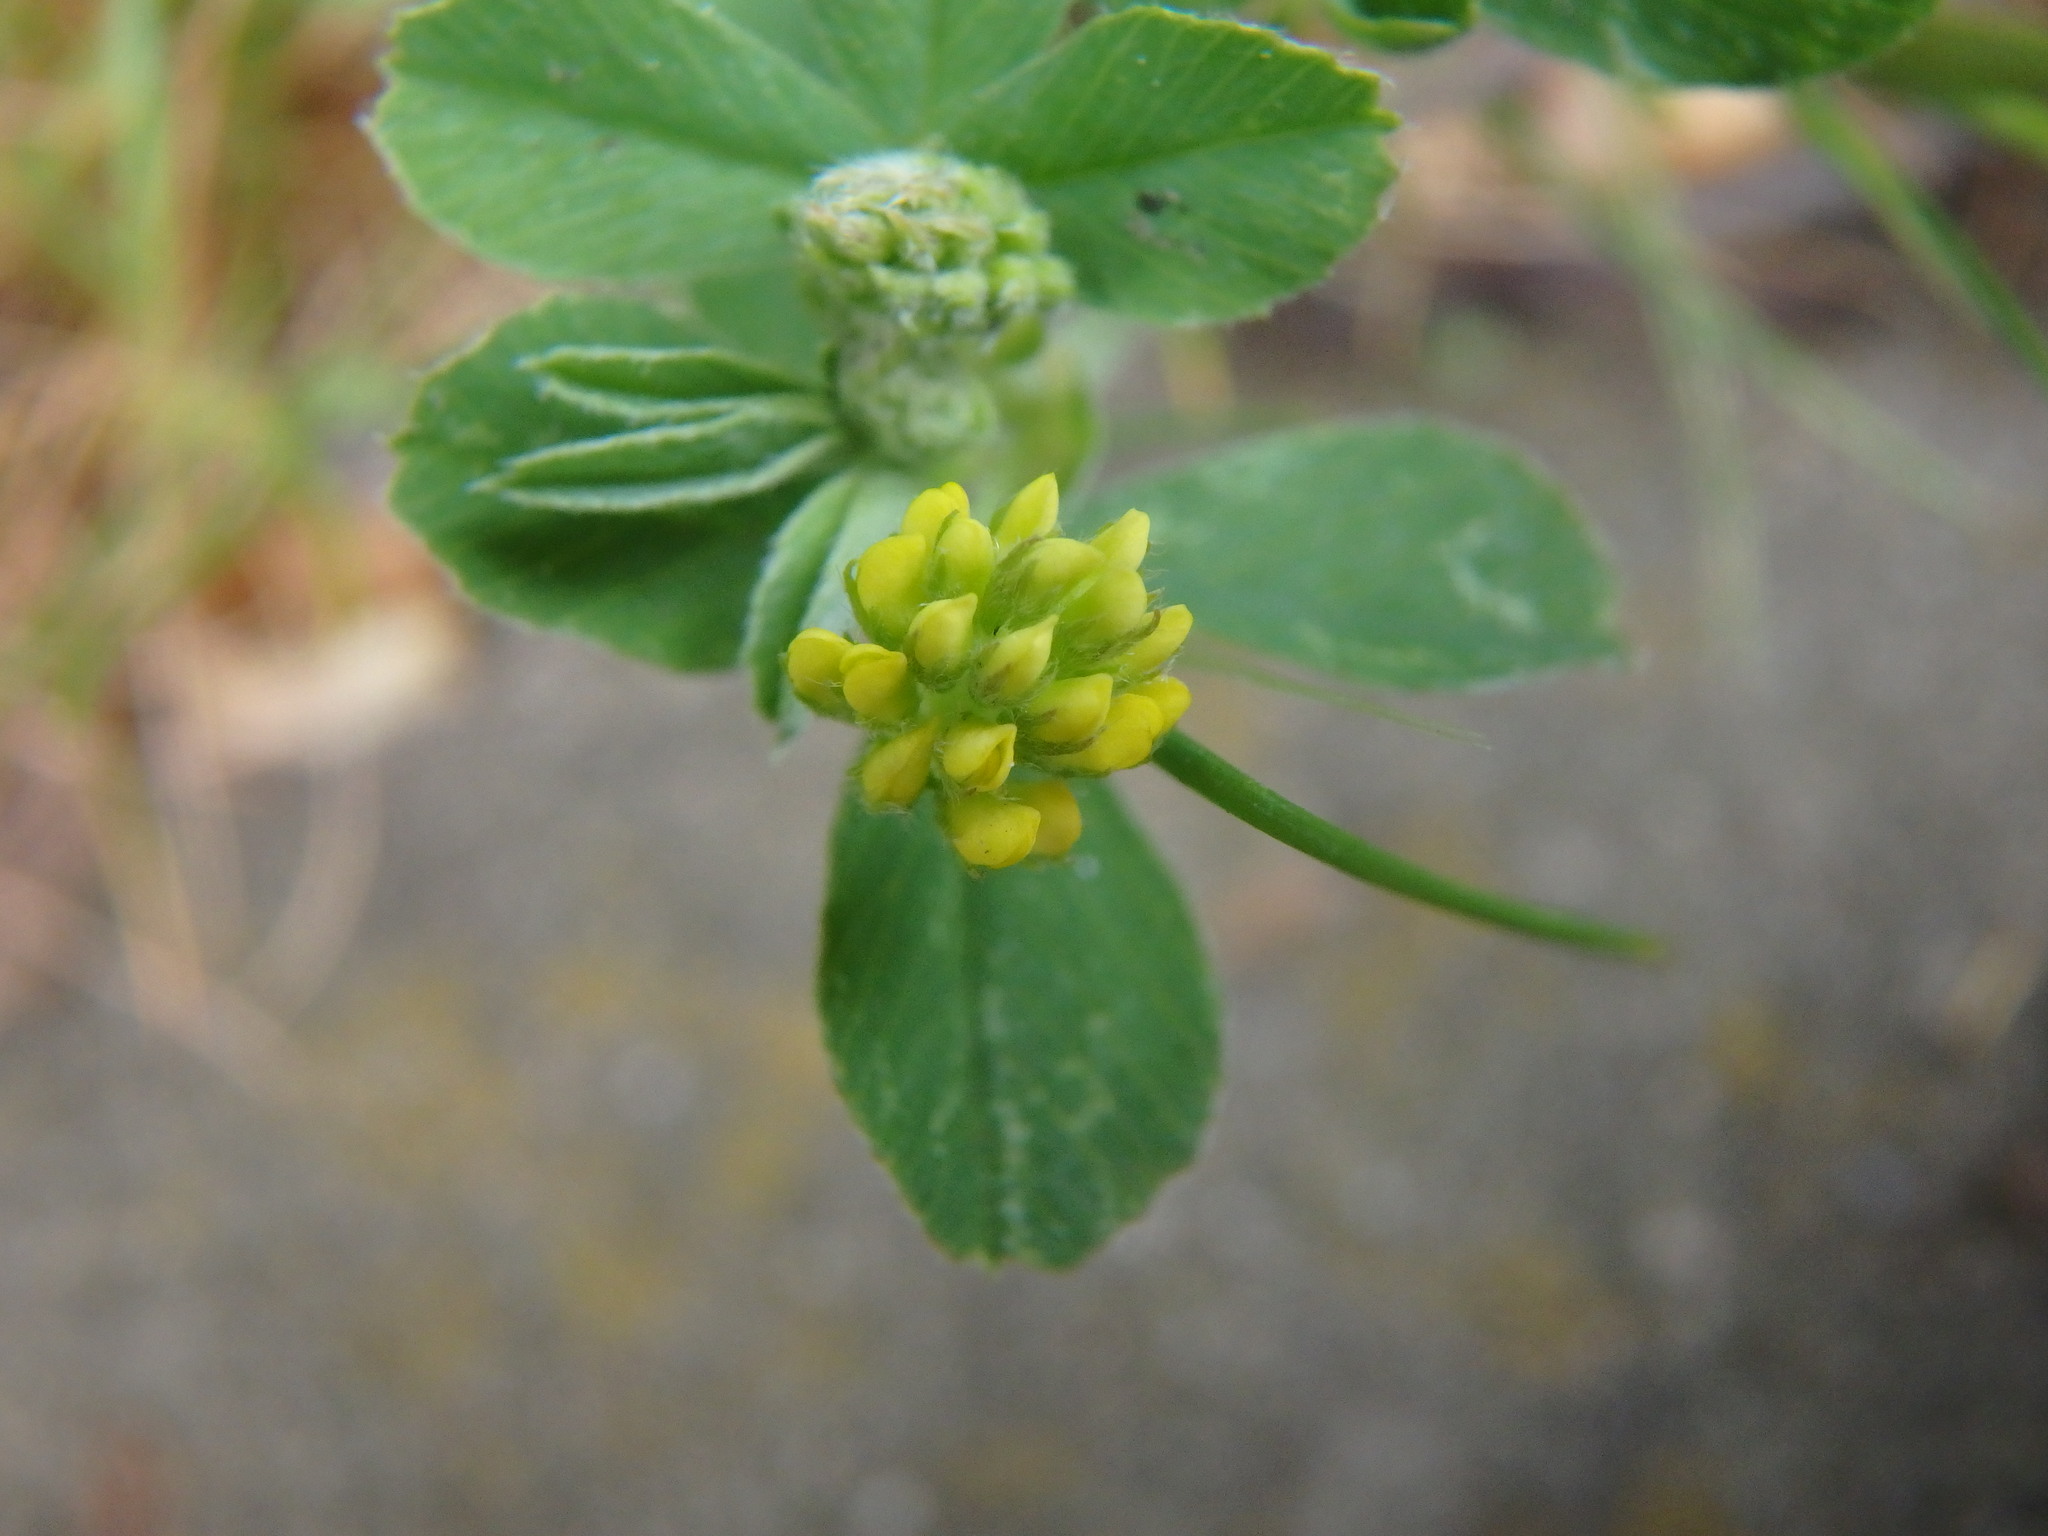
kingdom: Plantae
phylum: Tracheophyta
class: Magnoliopsida
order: Fabales
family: Fabaceae
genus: Medicago
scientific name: Medicago lupulina
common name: Black medick
